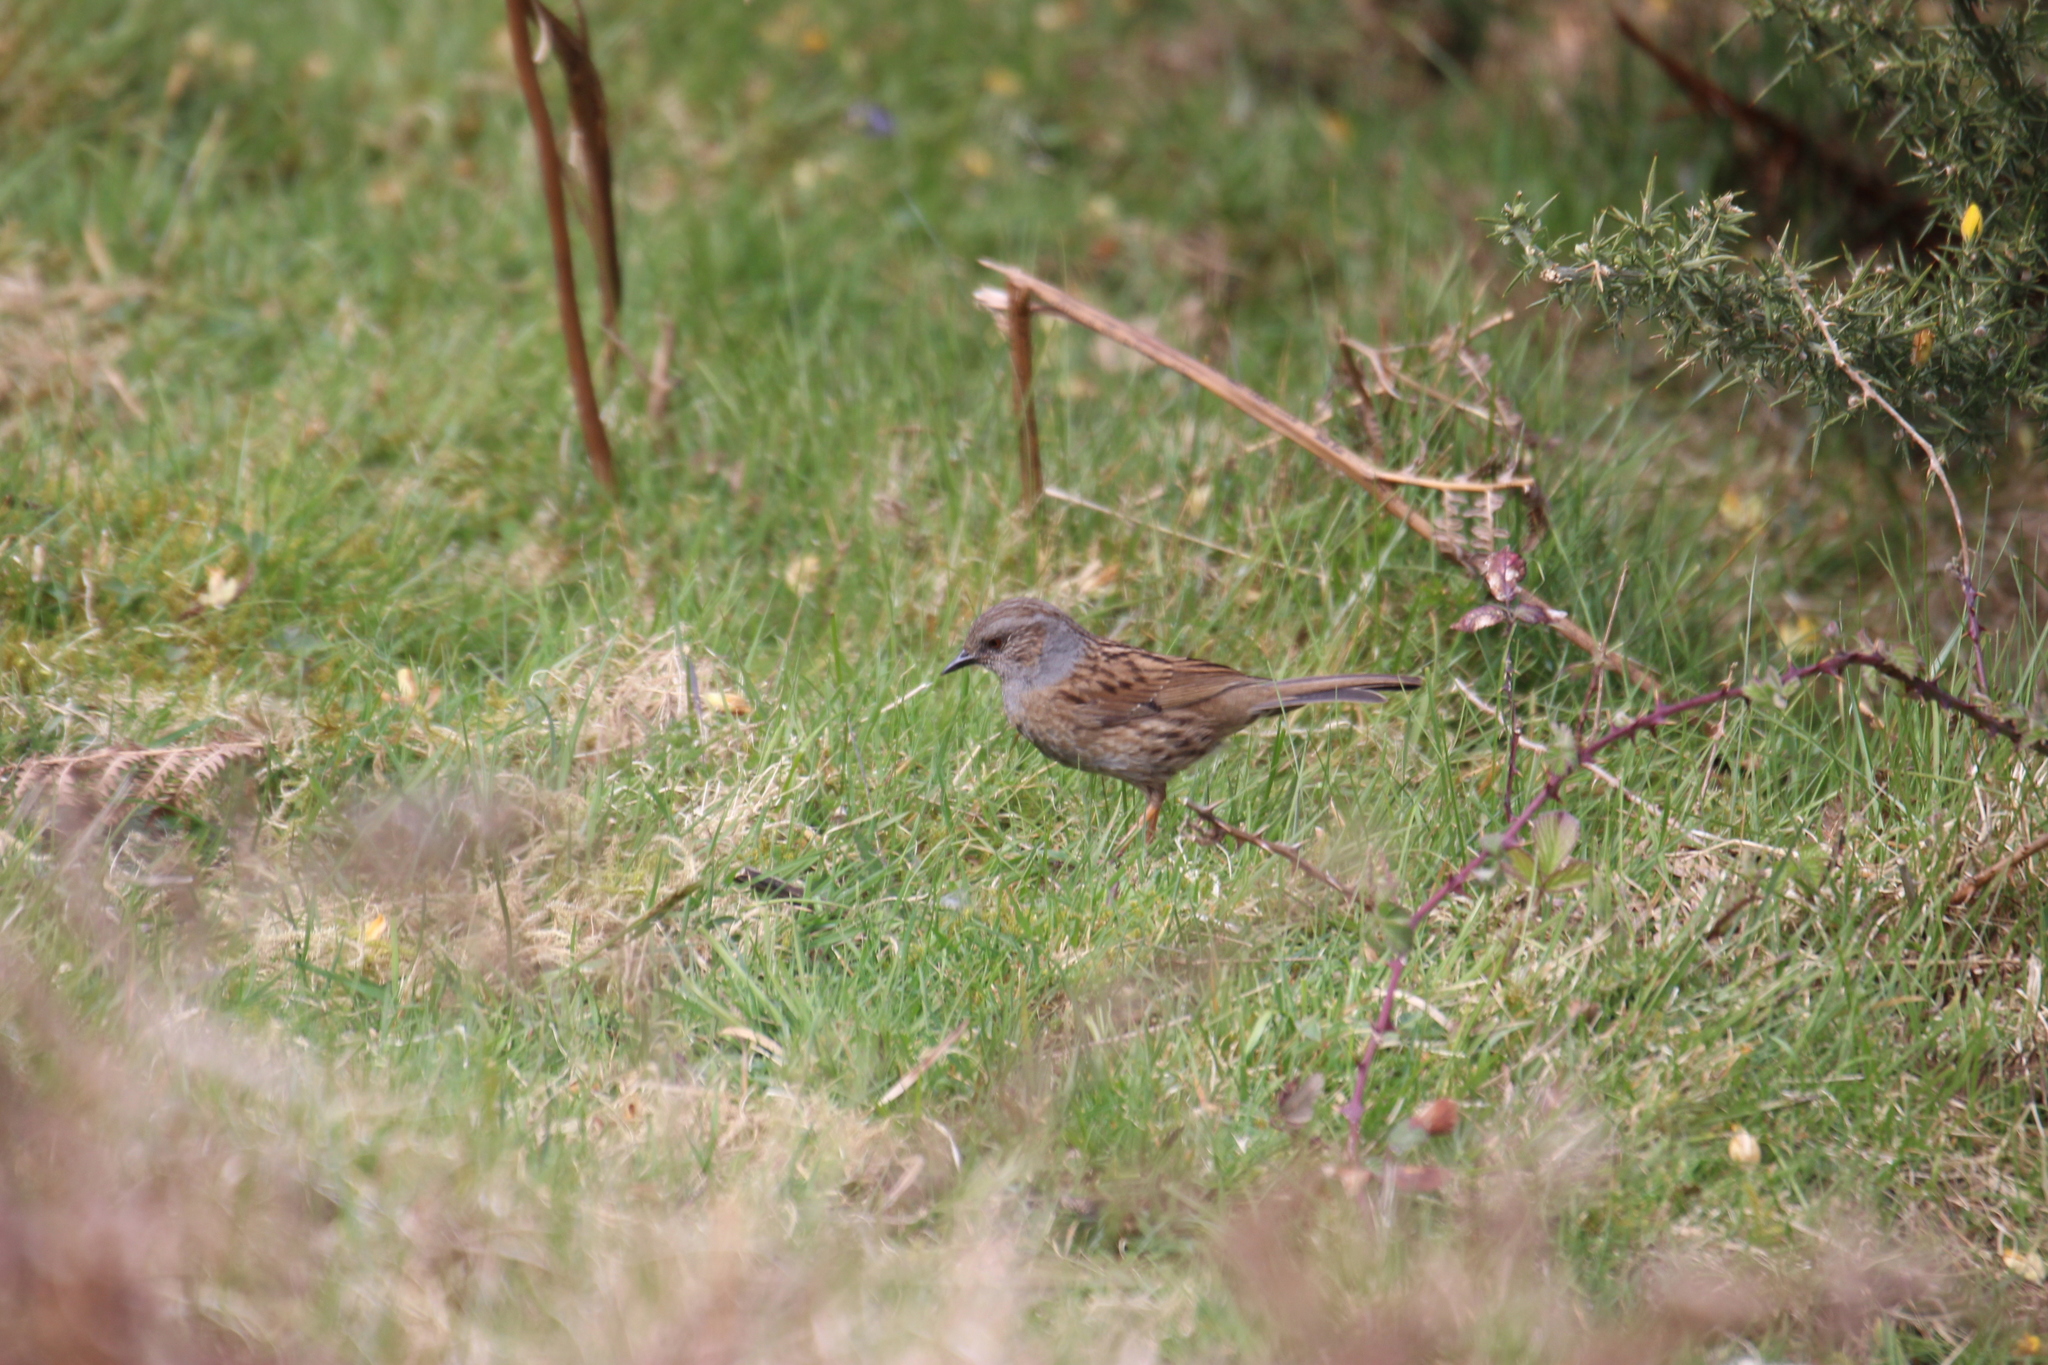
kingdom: Animalia
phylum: Chordata
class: Aves
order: Passeriformes
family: Prunellidae
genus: Prunella
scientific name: Prunella modularis
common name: Dunnock
